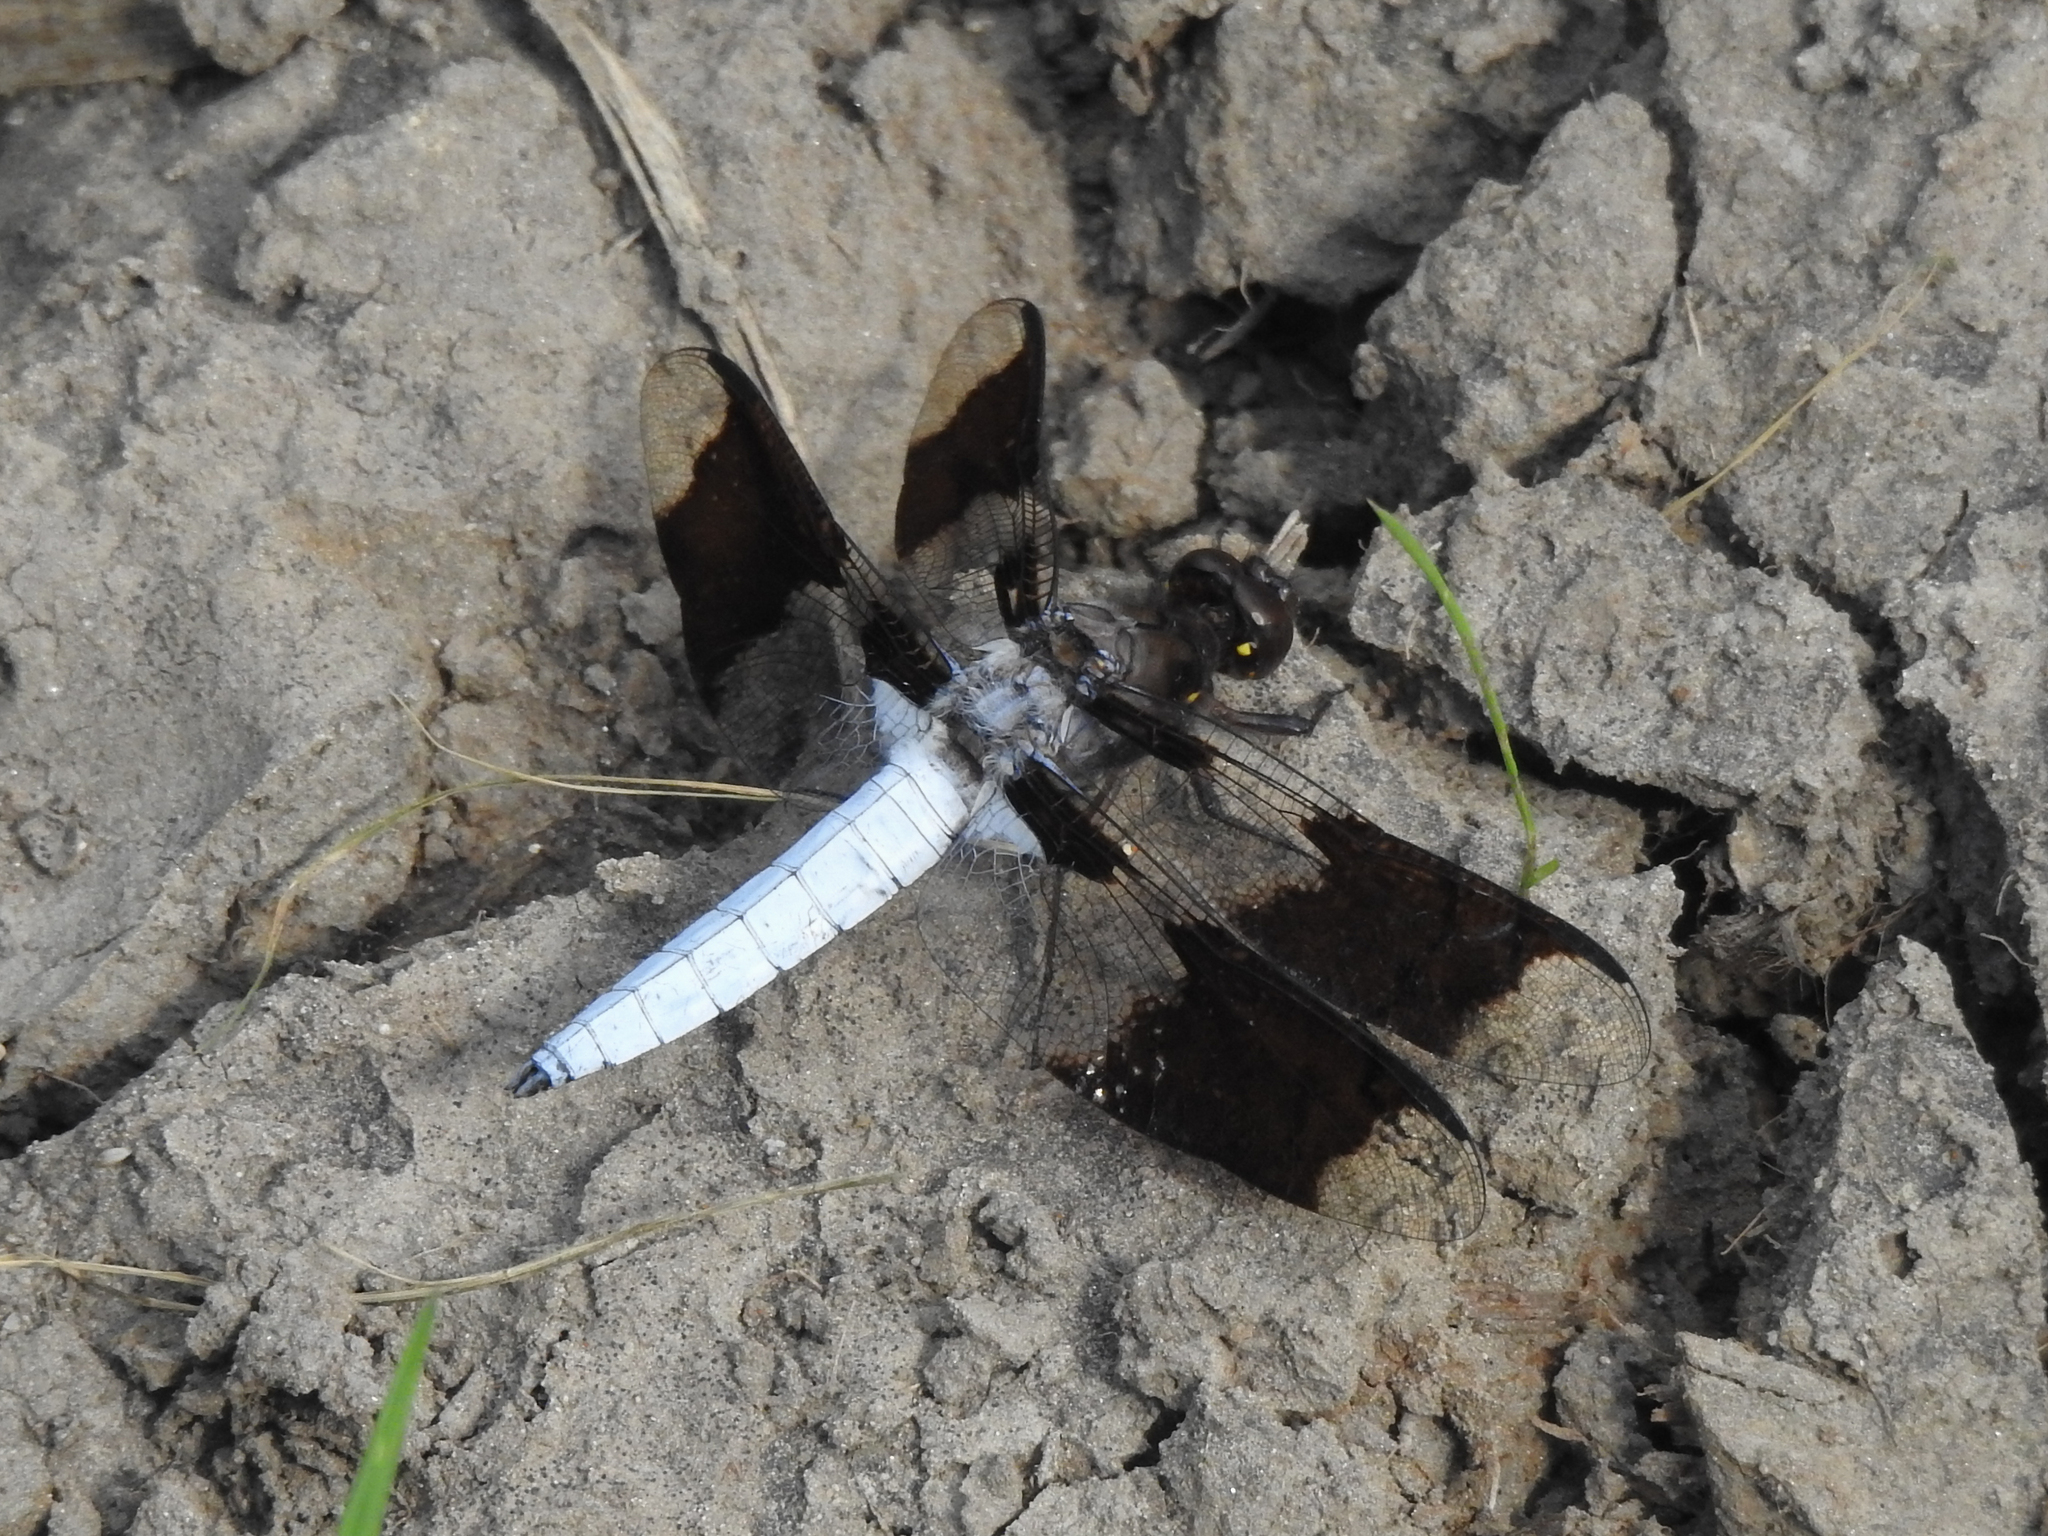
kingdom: Animalia
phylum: Arthropoda
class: Insecta
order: Odonata
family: Libellulidae
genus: Plathemis
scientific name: Plathemis lydia
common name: Common whitetail
